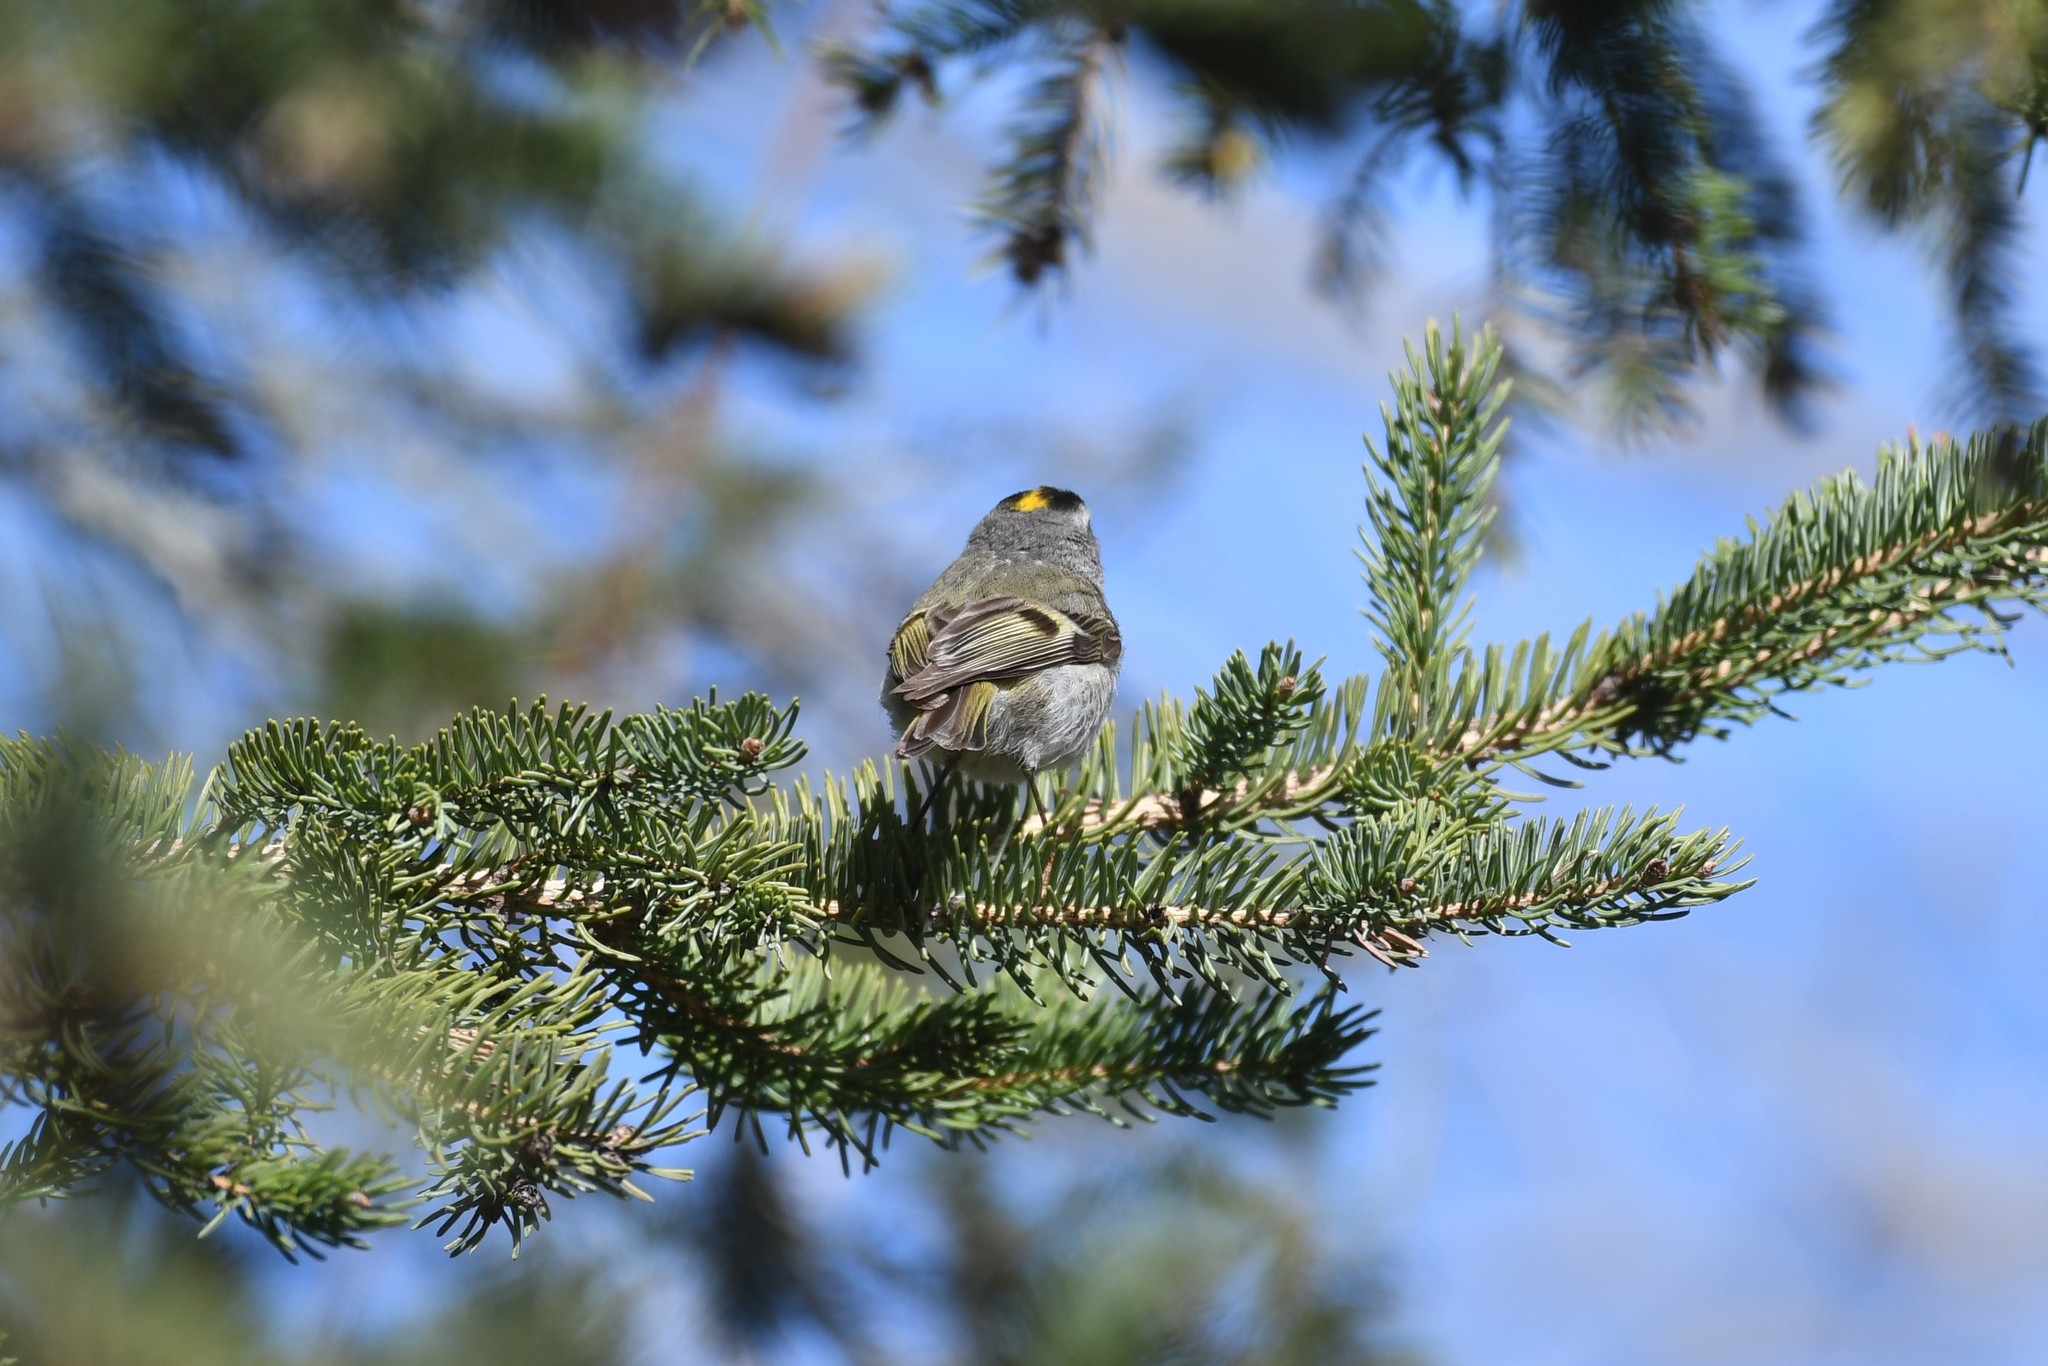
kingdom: Animalia
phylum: Chordata
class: Aves
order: Passeriformes
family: Regulidae
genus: Regulus
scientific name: Regulus satrapa
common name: Golden-crowned kinglet
